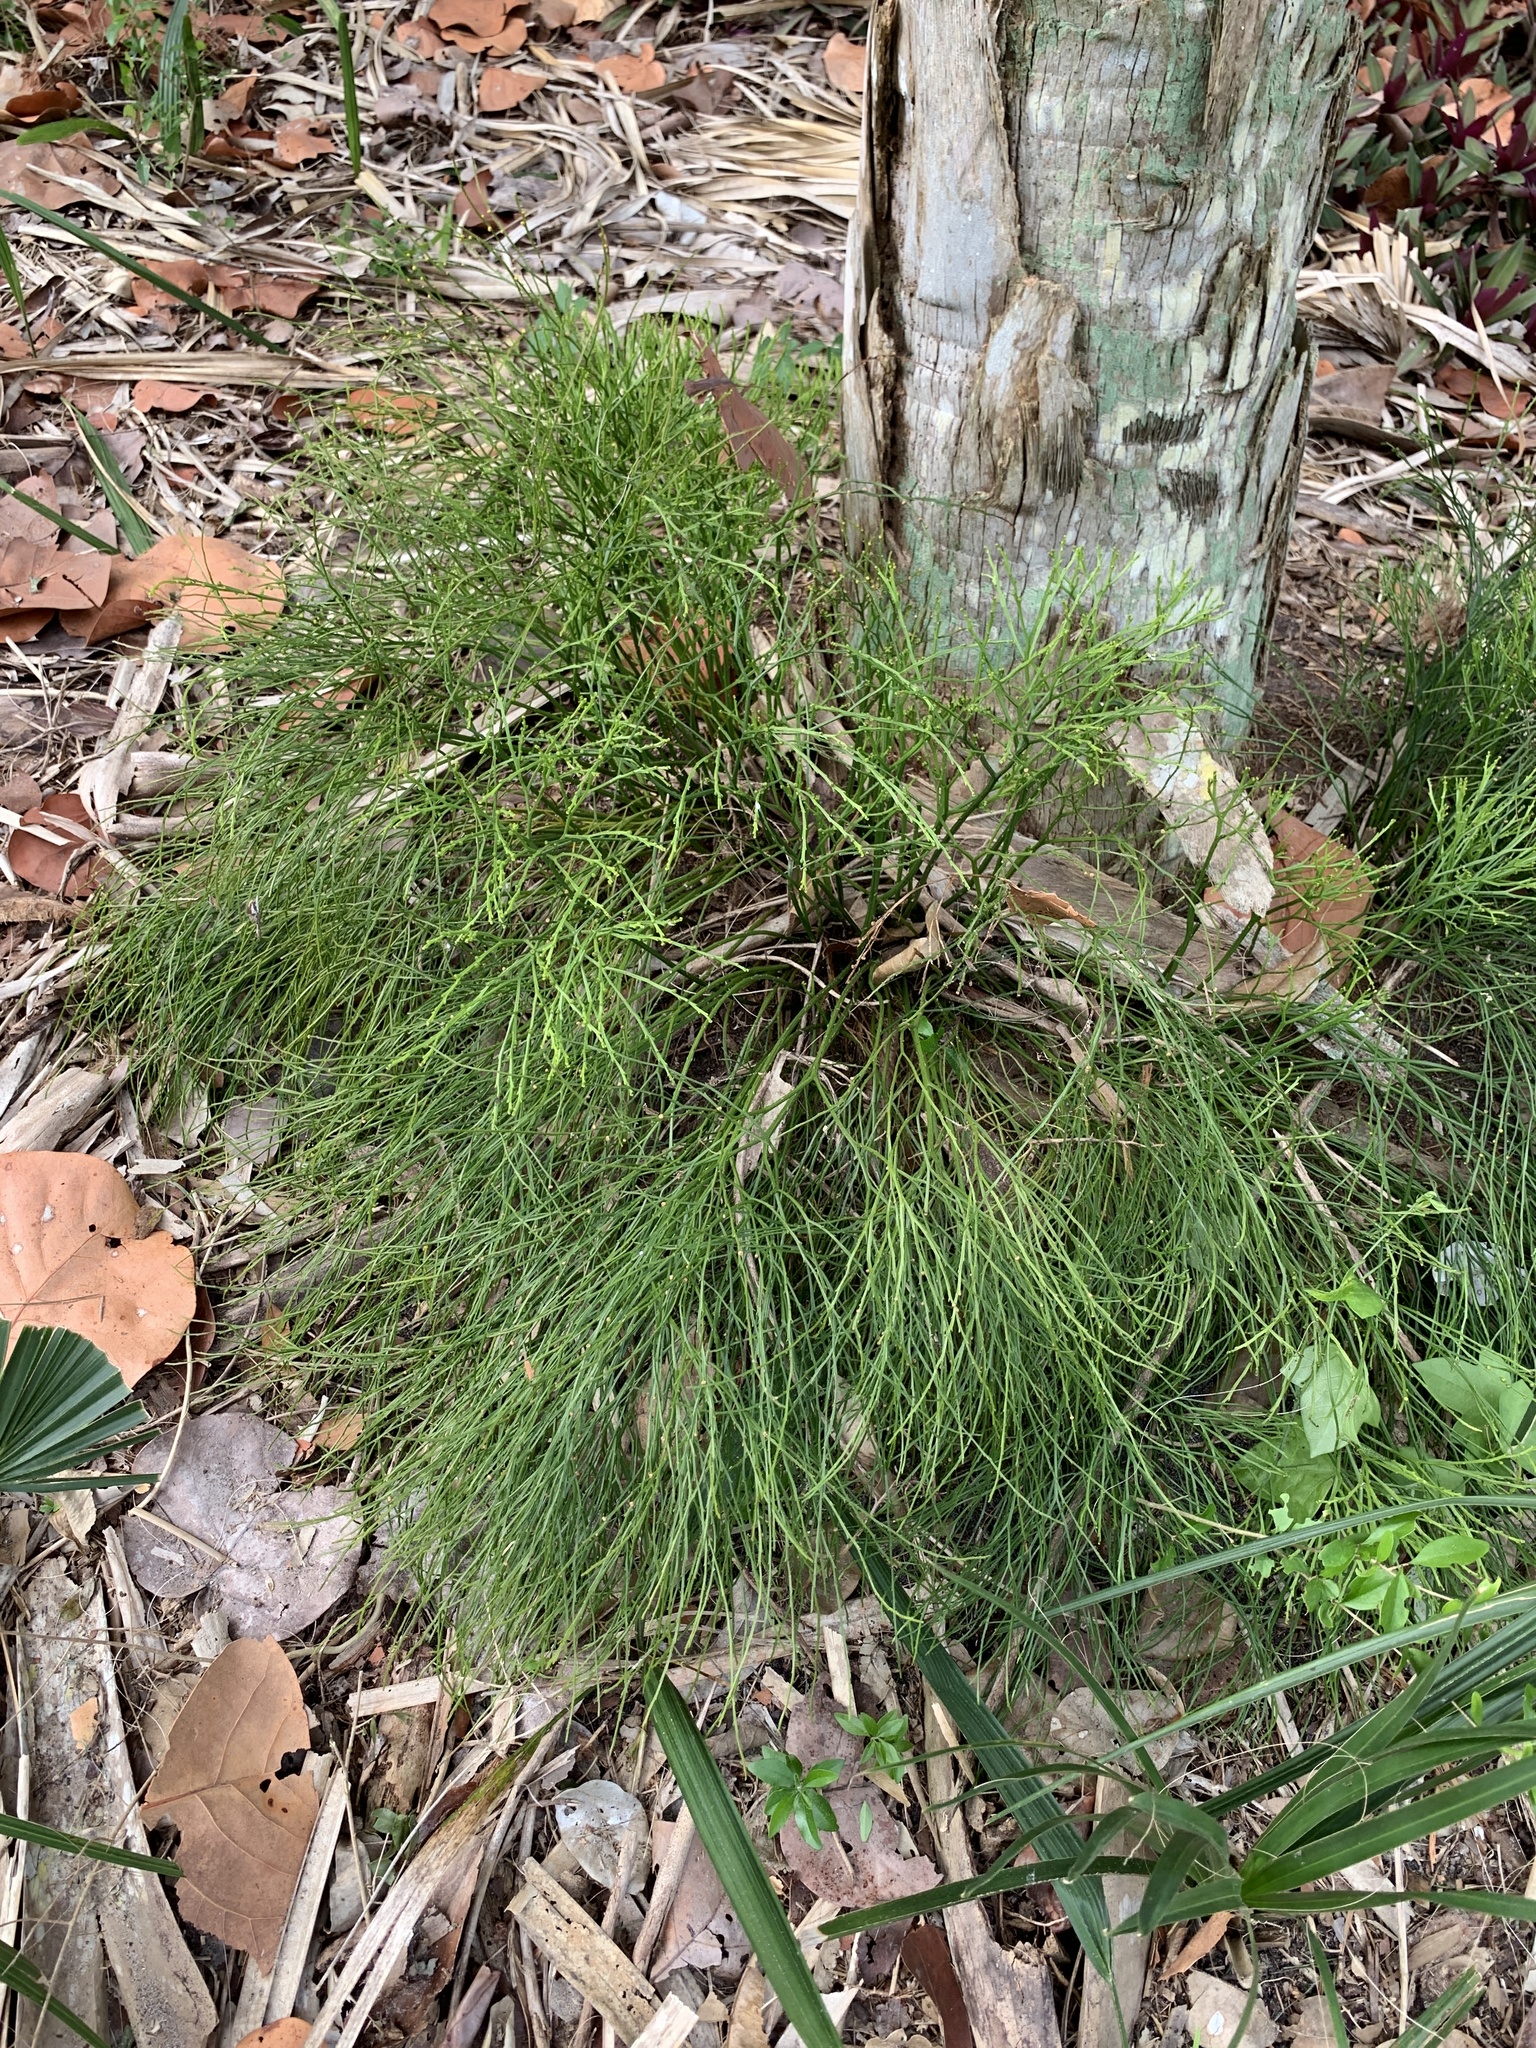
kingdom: Plantae
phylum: Tracheophyta
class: Polypodiopsida
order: Psilotales
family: Psilotaceae
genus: Psilotum
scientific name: Psilotum nudum
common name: Skeleton fork fern
